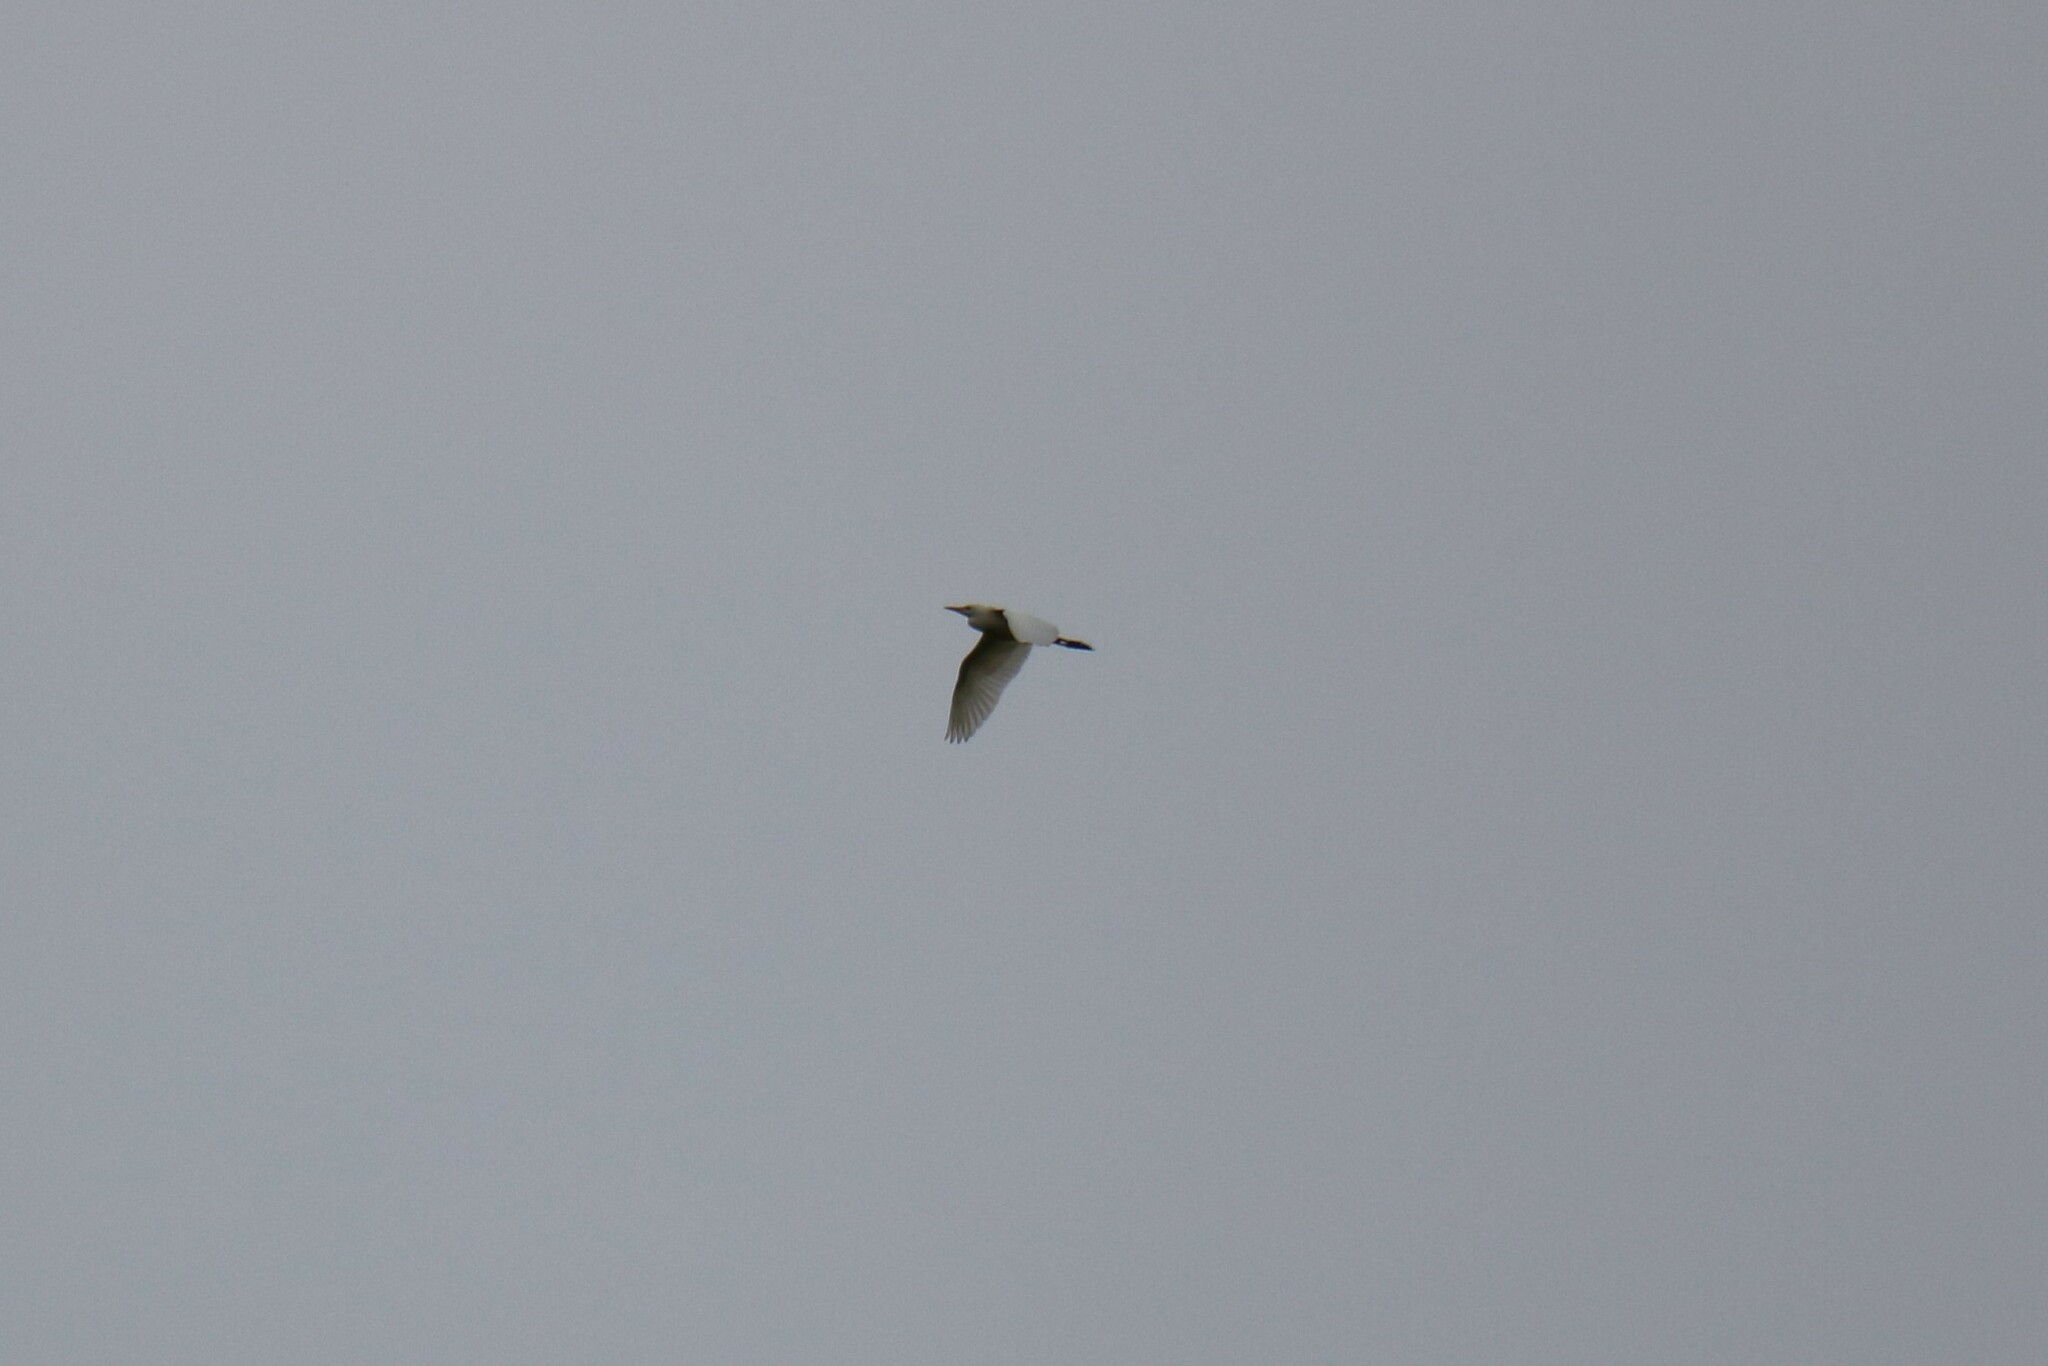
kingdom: Animalia
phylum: Chordata
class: Aves
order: Pelecaniformes
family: Ardeidae
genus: Bubulcus
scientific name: Bubulcus ibis
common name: Cattle egret
